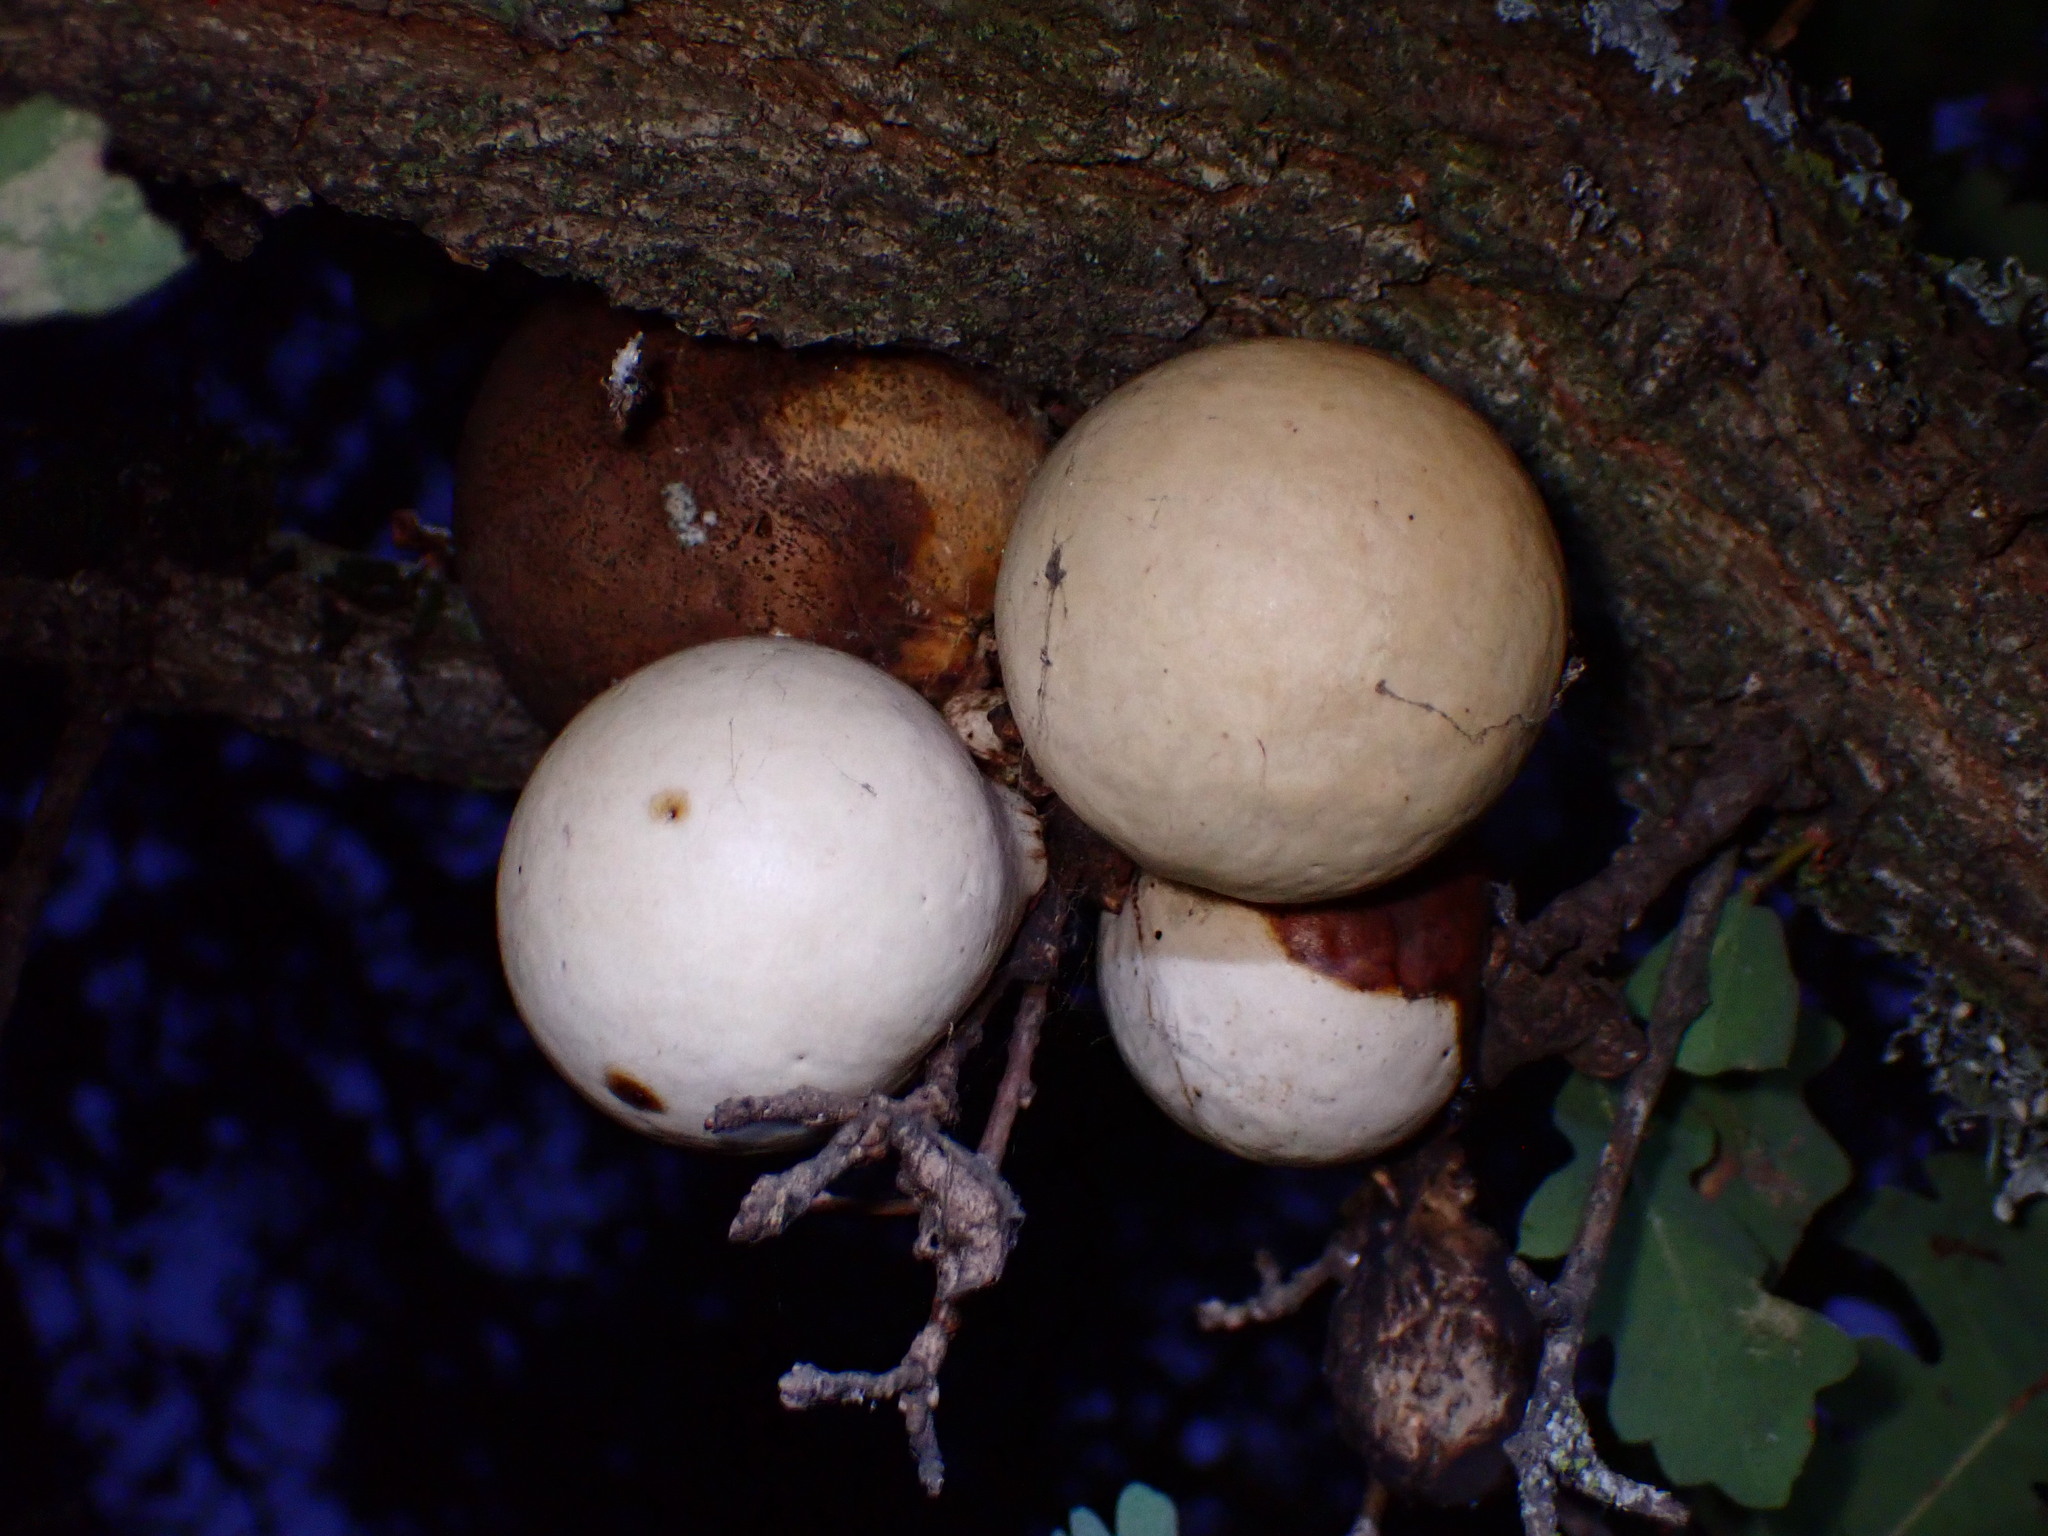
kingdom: Animalia
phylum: Arthropoda
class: Insecta
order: Hymenoptera
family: Cynipidae
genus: Andricus
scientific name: Andricus quercuscalifornicus
